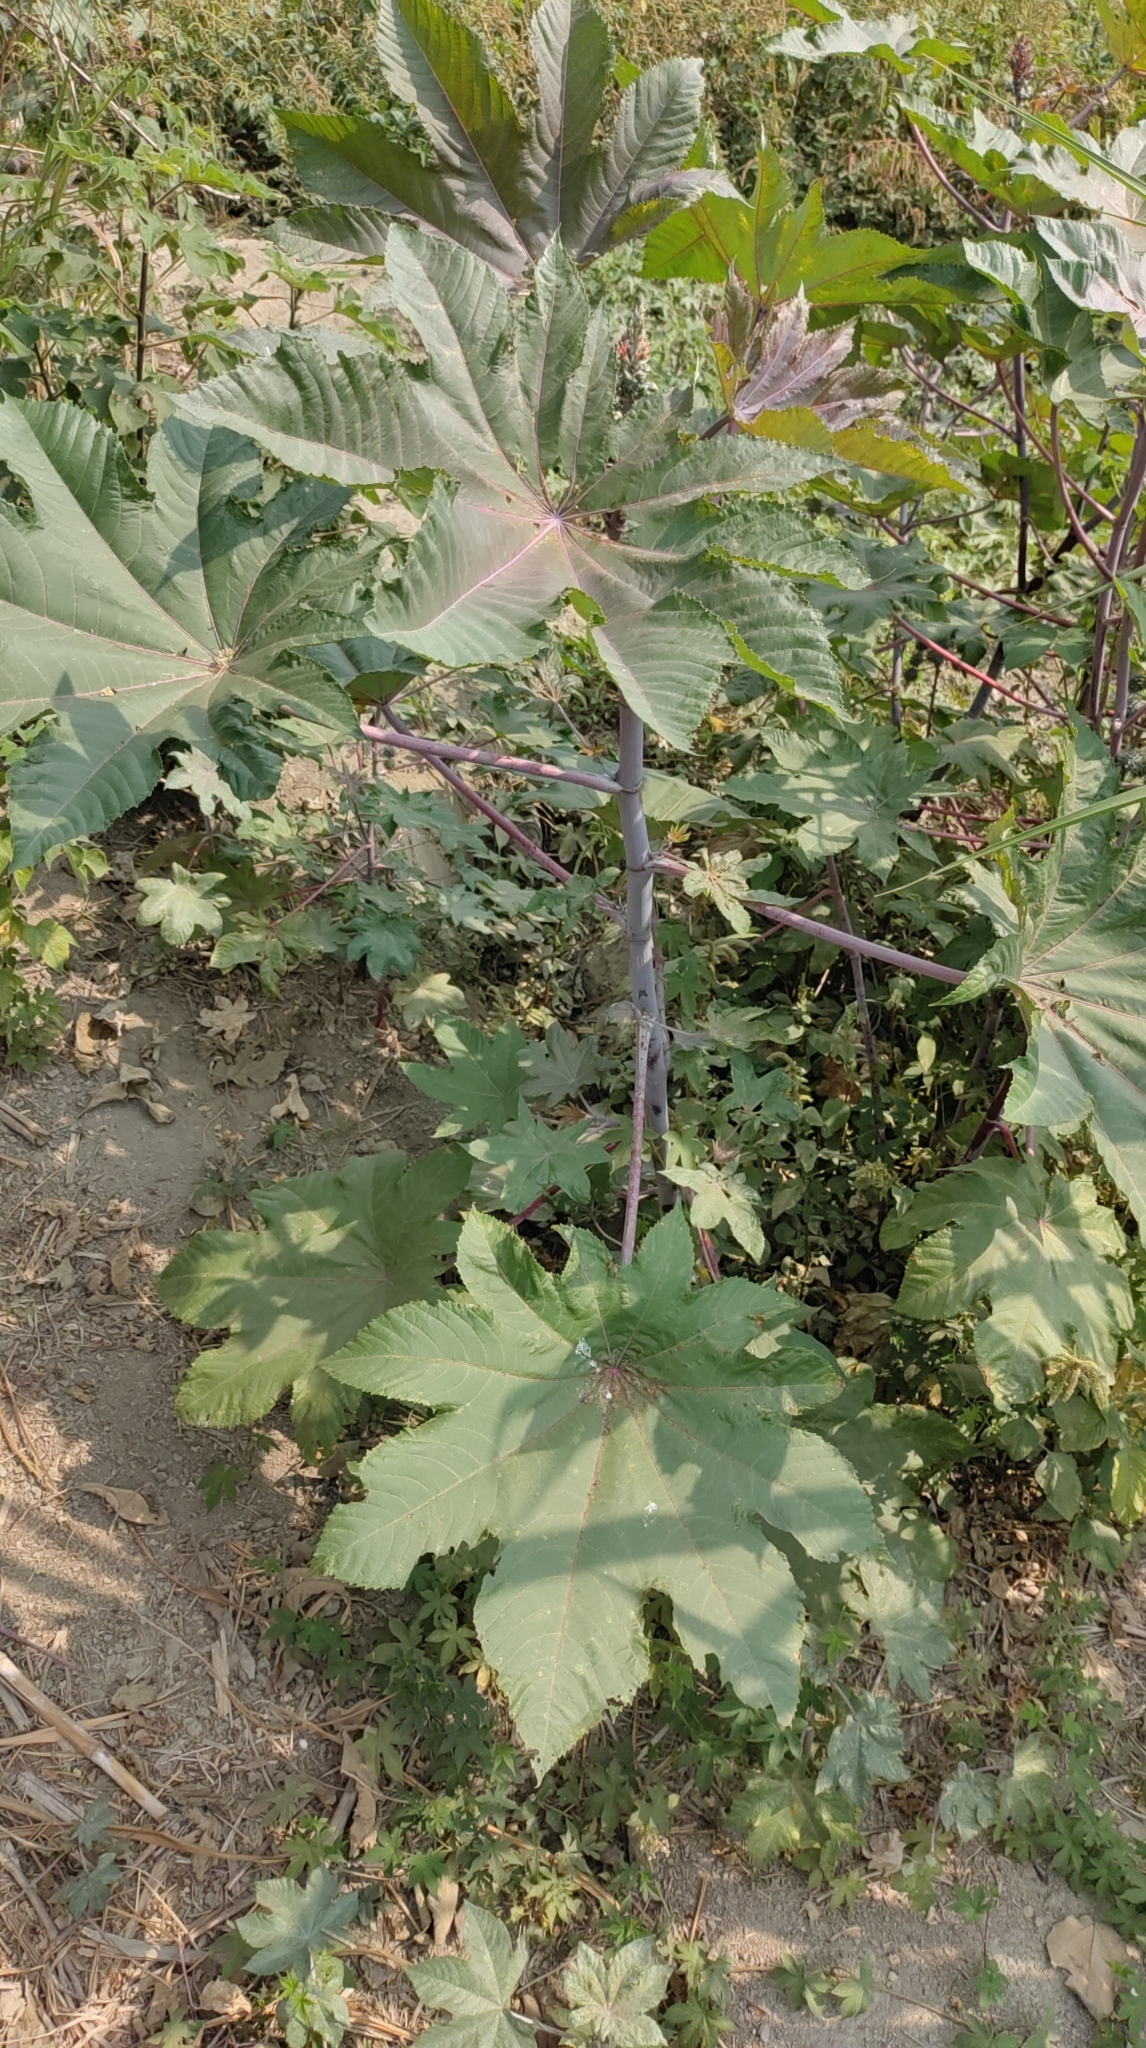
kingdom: Plantae
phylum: Tracheophyta
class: Magnoliopsida
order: Malpighiales
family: Euphorbiaceae
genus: Ricinus
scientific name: Ricinus communis
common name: Castor-oil-plant
